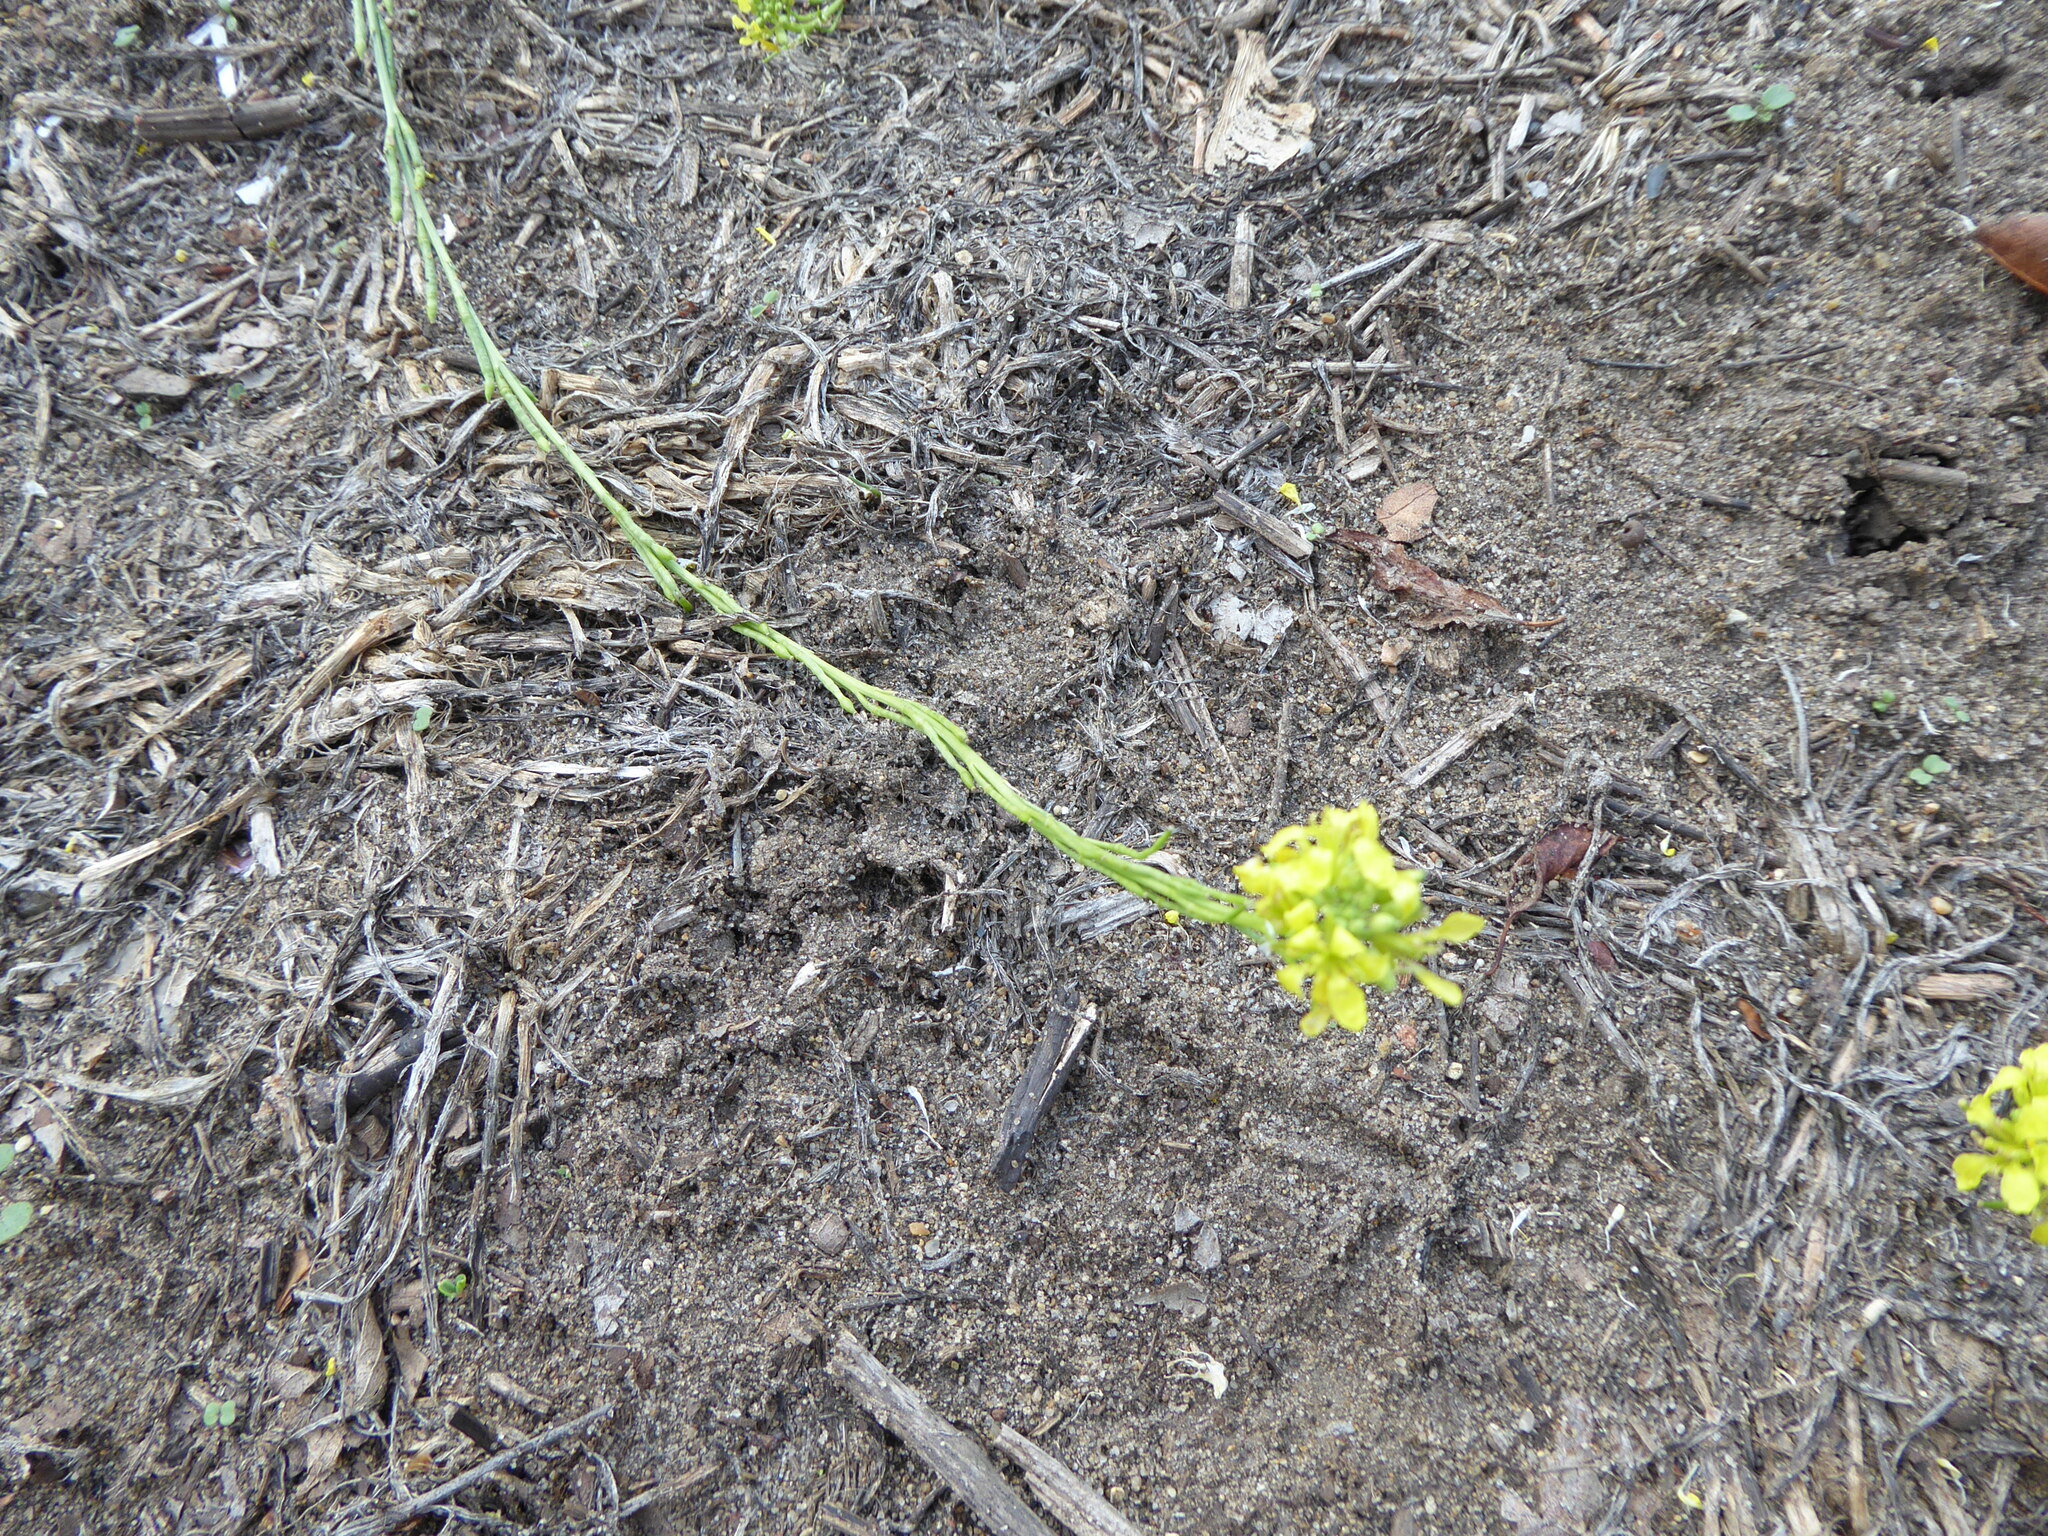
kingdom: Plantae
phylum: Tracheophyta
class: Magnoliopsida
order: Brassicales
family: Brassicaceae
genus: Hirschfeldia
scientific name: Hirschfeldia incana
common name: Hoary mustard
